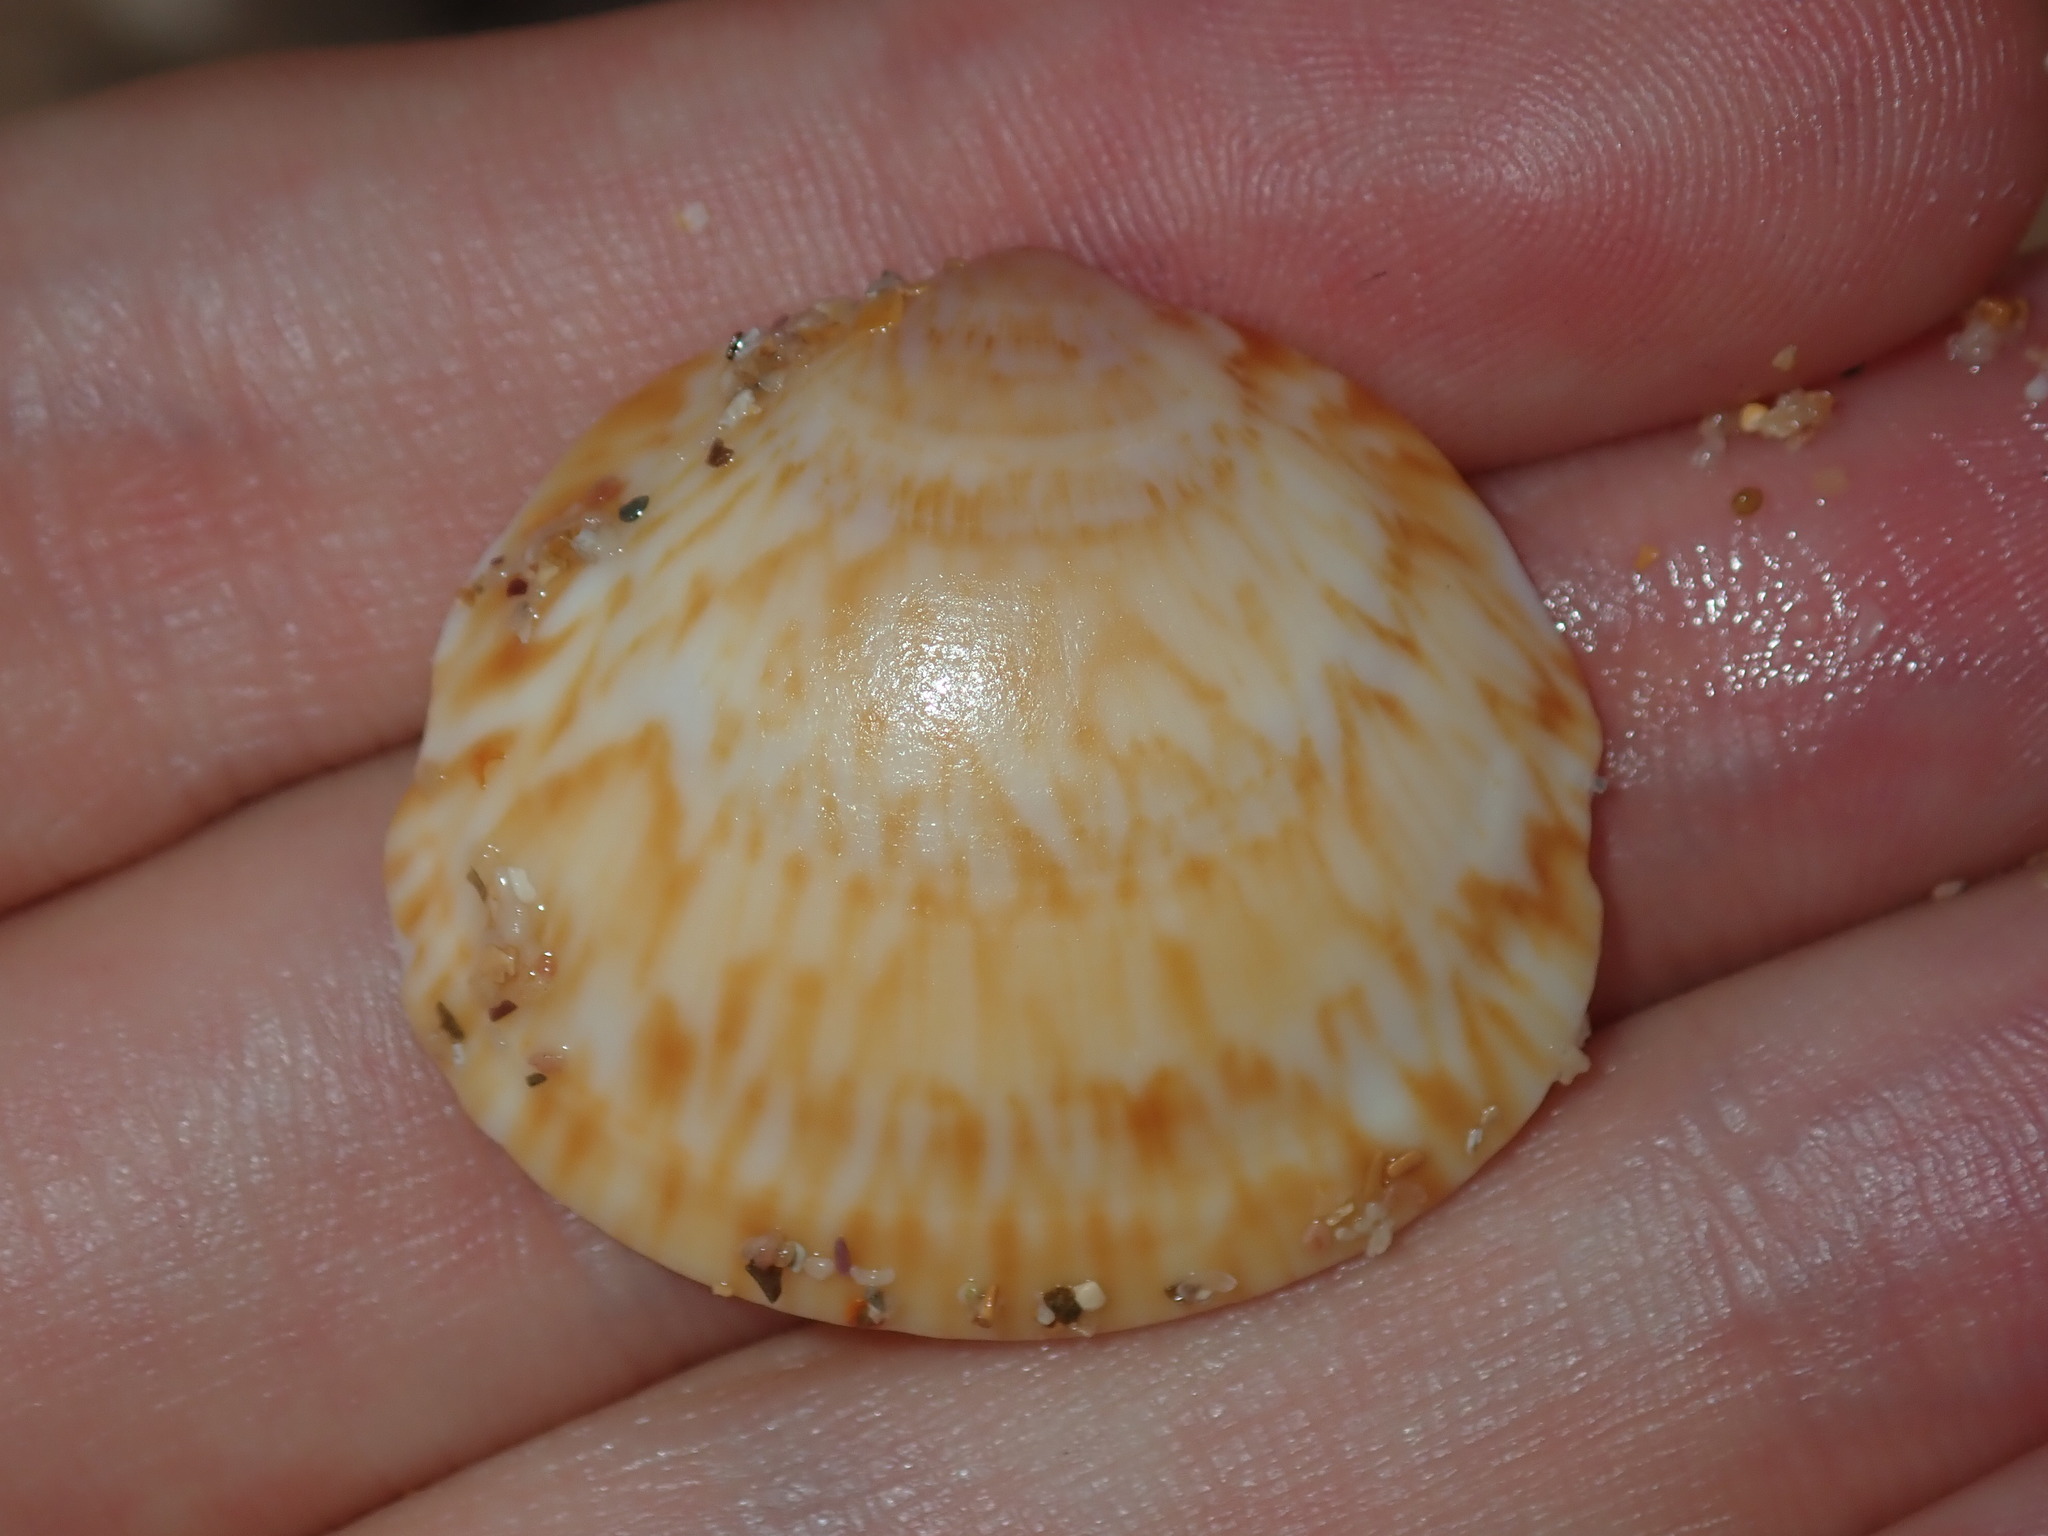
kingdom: Animalia
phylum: Mollusca
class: Bivalvia
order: Arcida
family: Glycymerididae
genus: Glycymeris
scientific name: Glycymeris grayana
